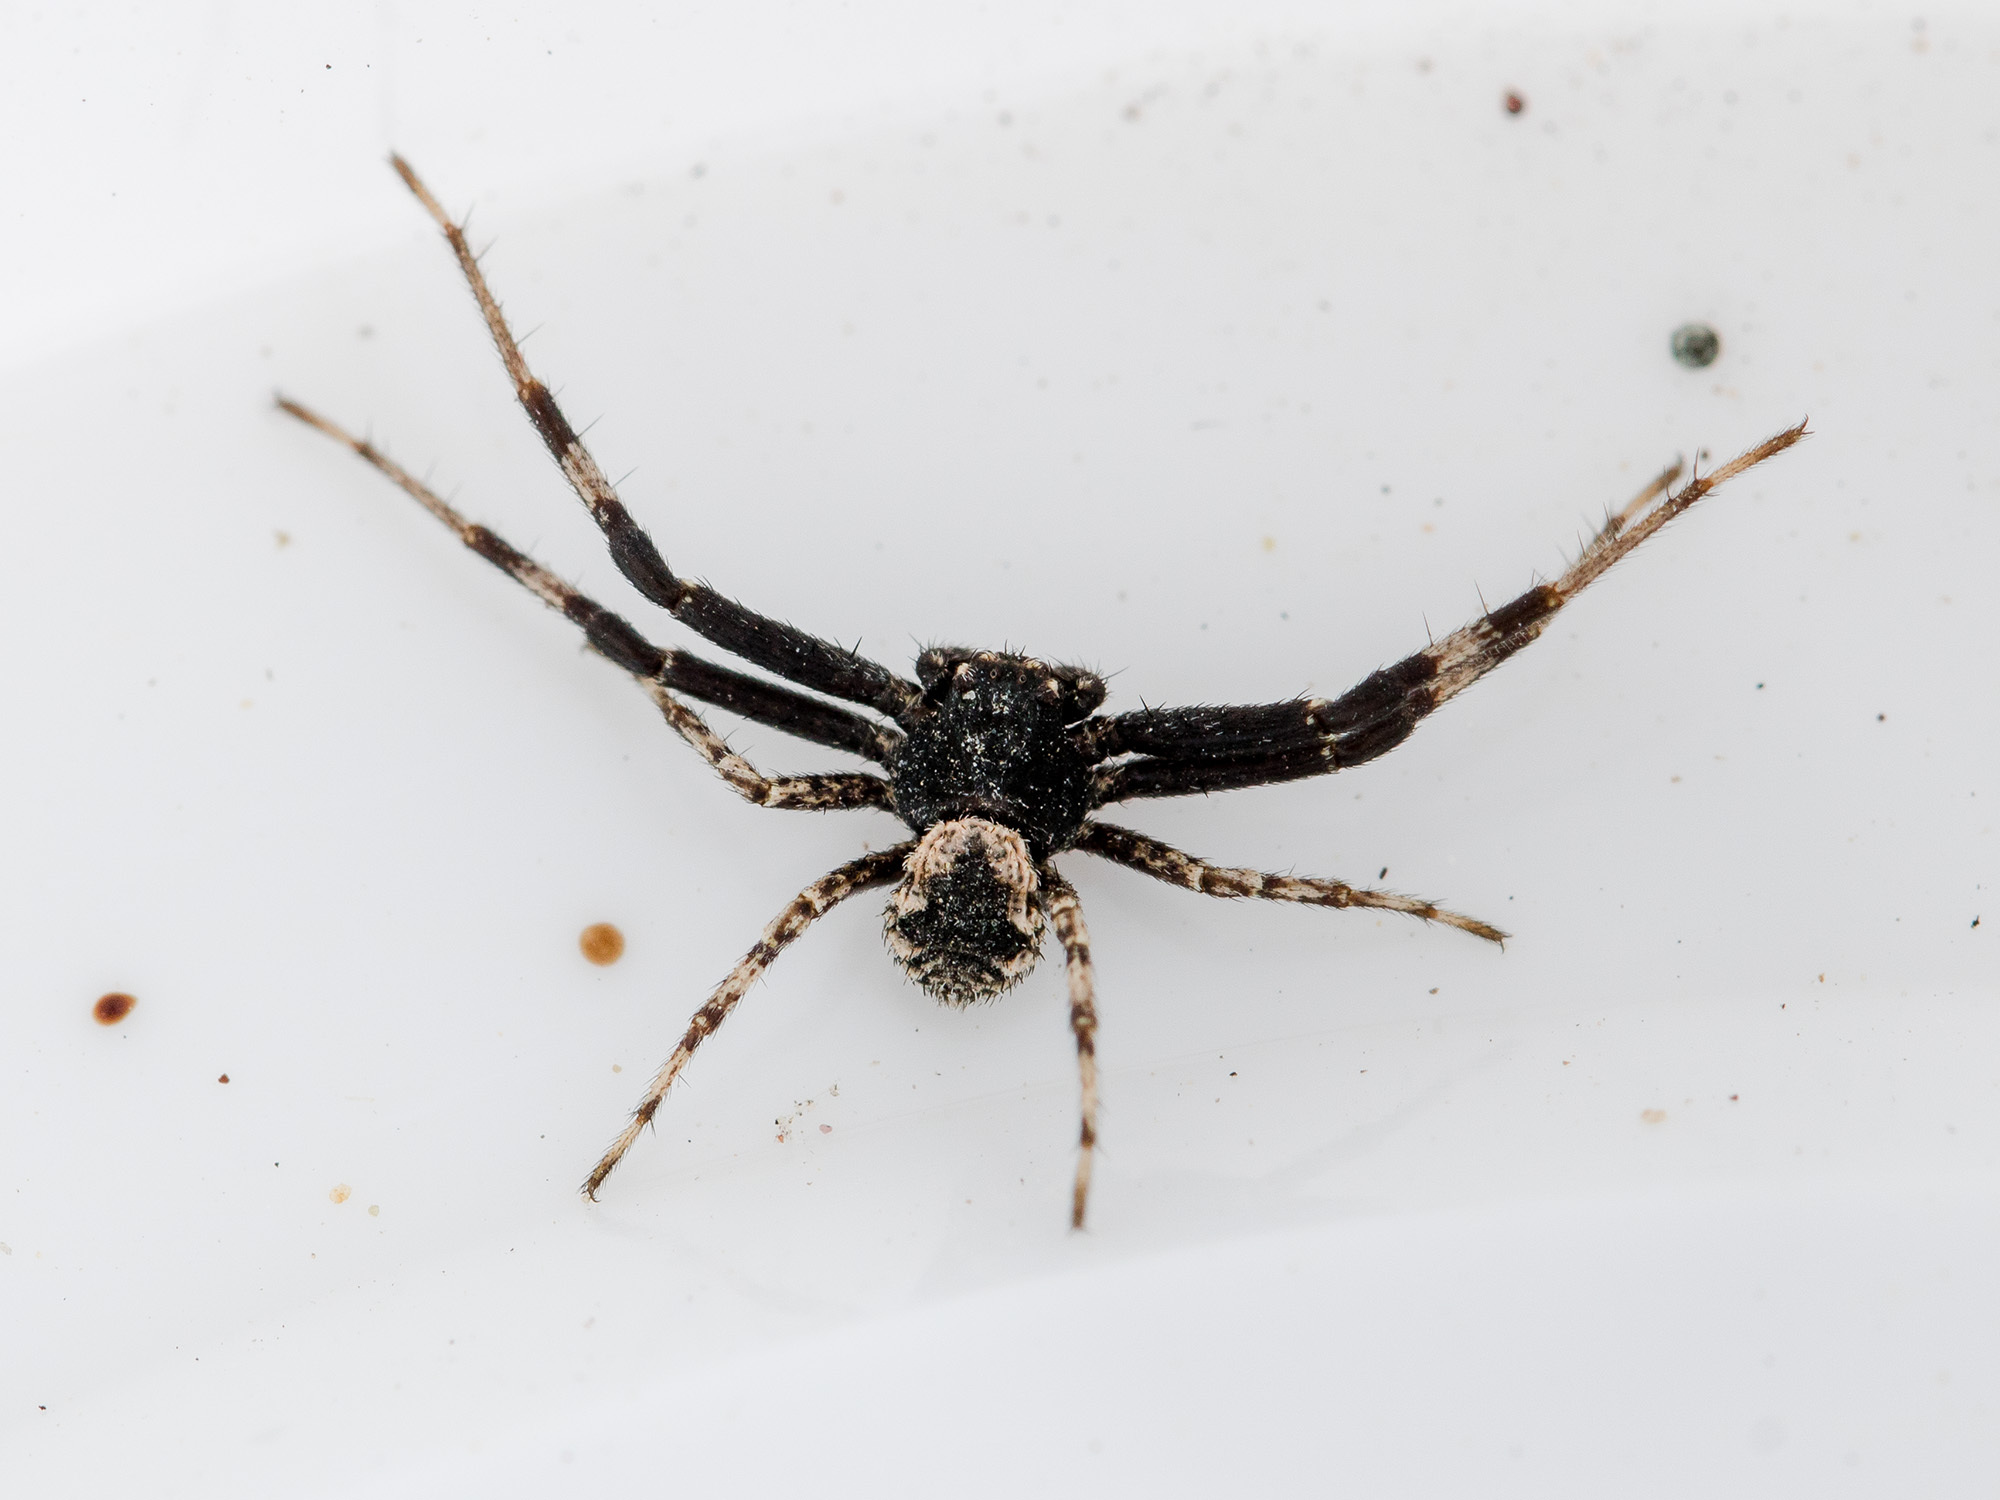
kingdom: Animalia
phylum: Arthropoda
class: Arachnida
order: Araneae
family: Thomisidae
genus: Ozyptila
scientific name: Ozyptila tuberosa
